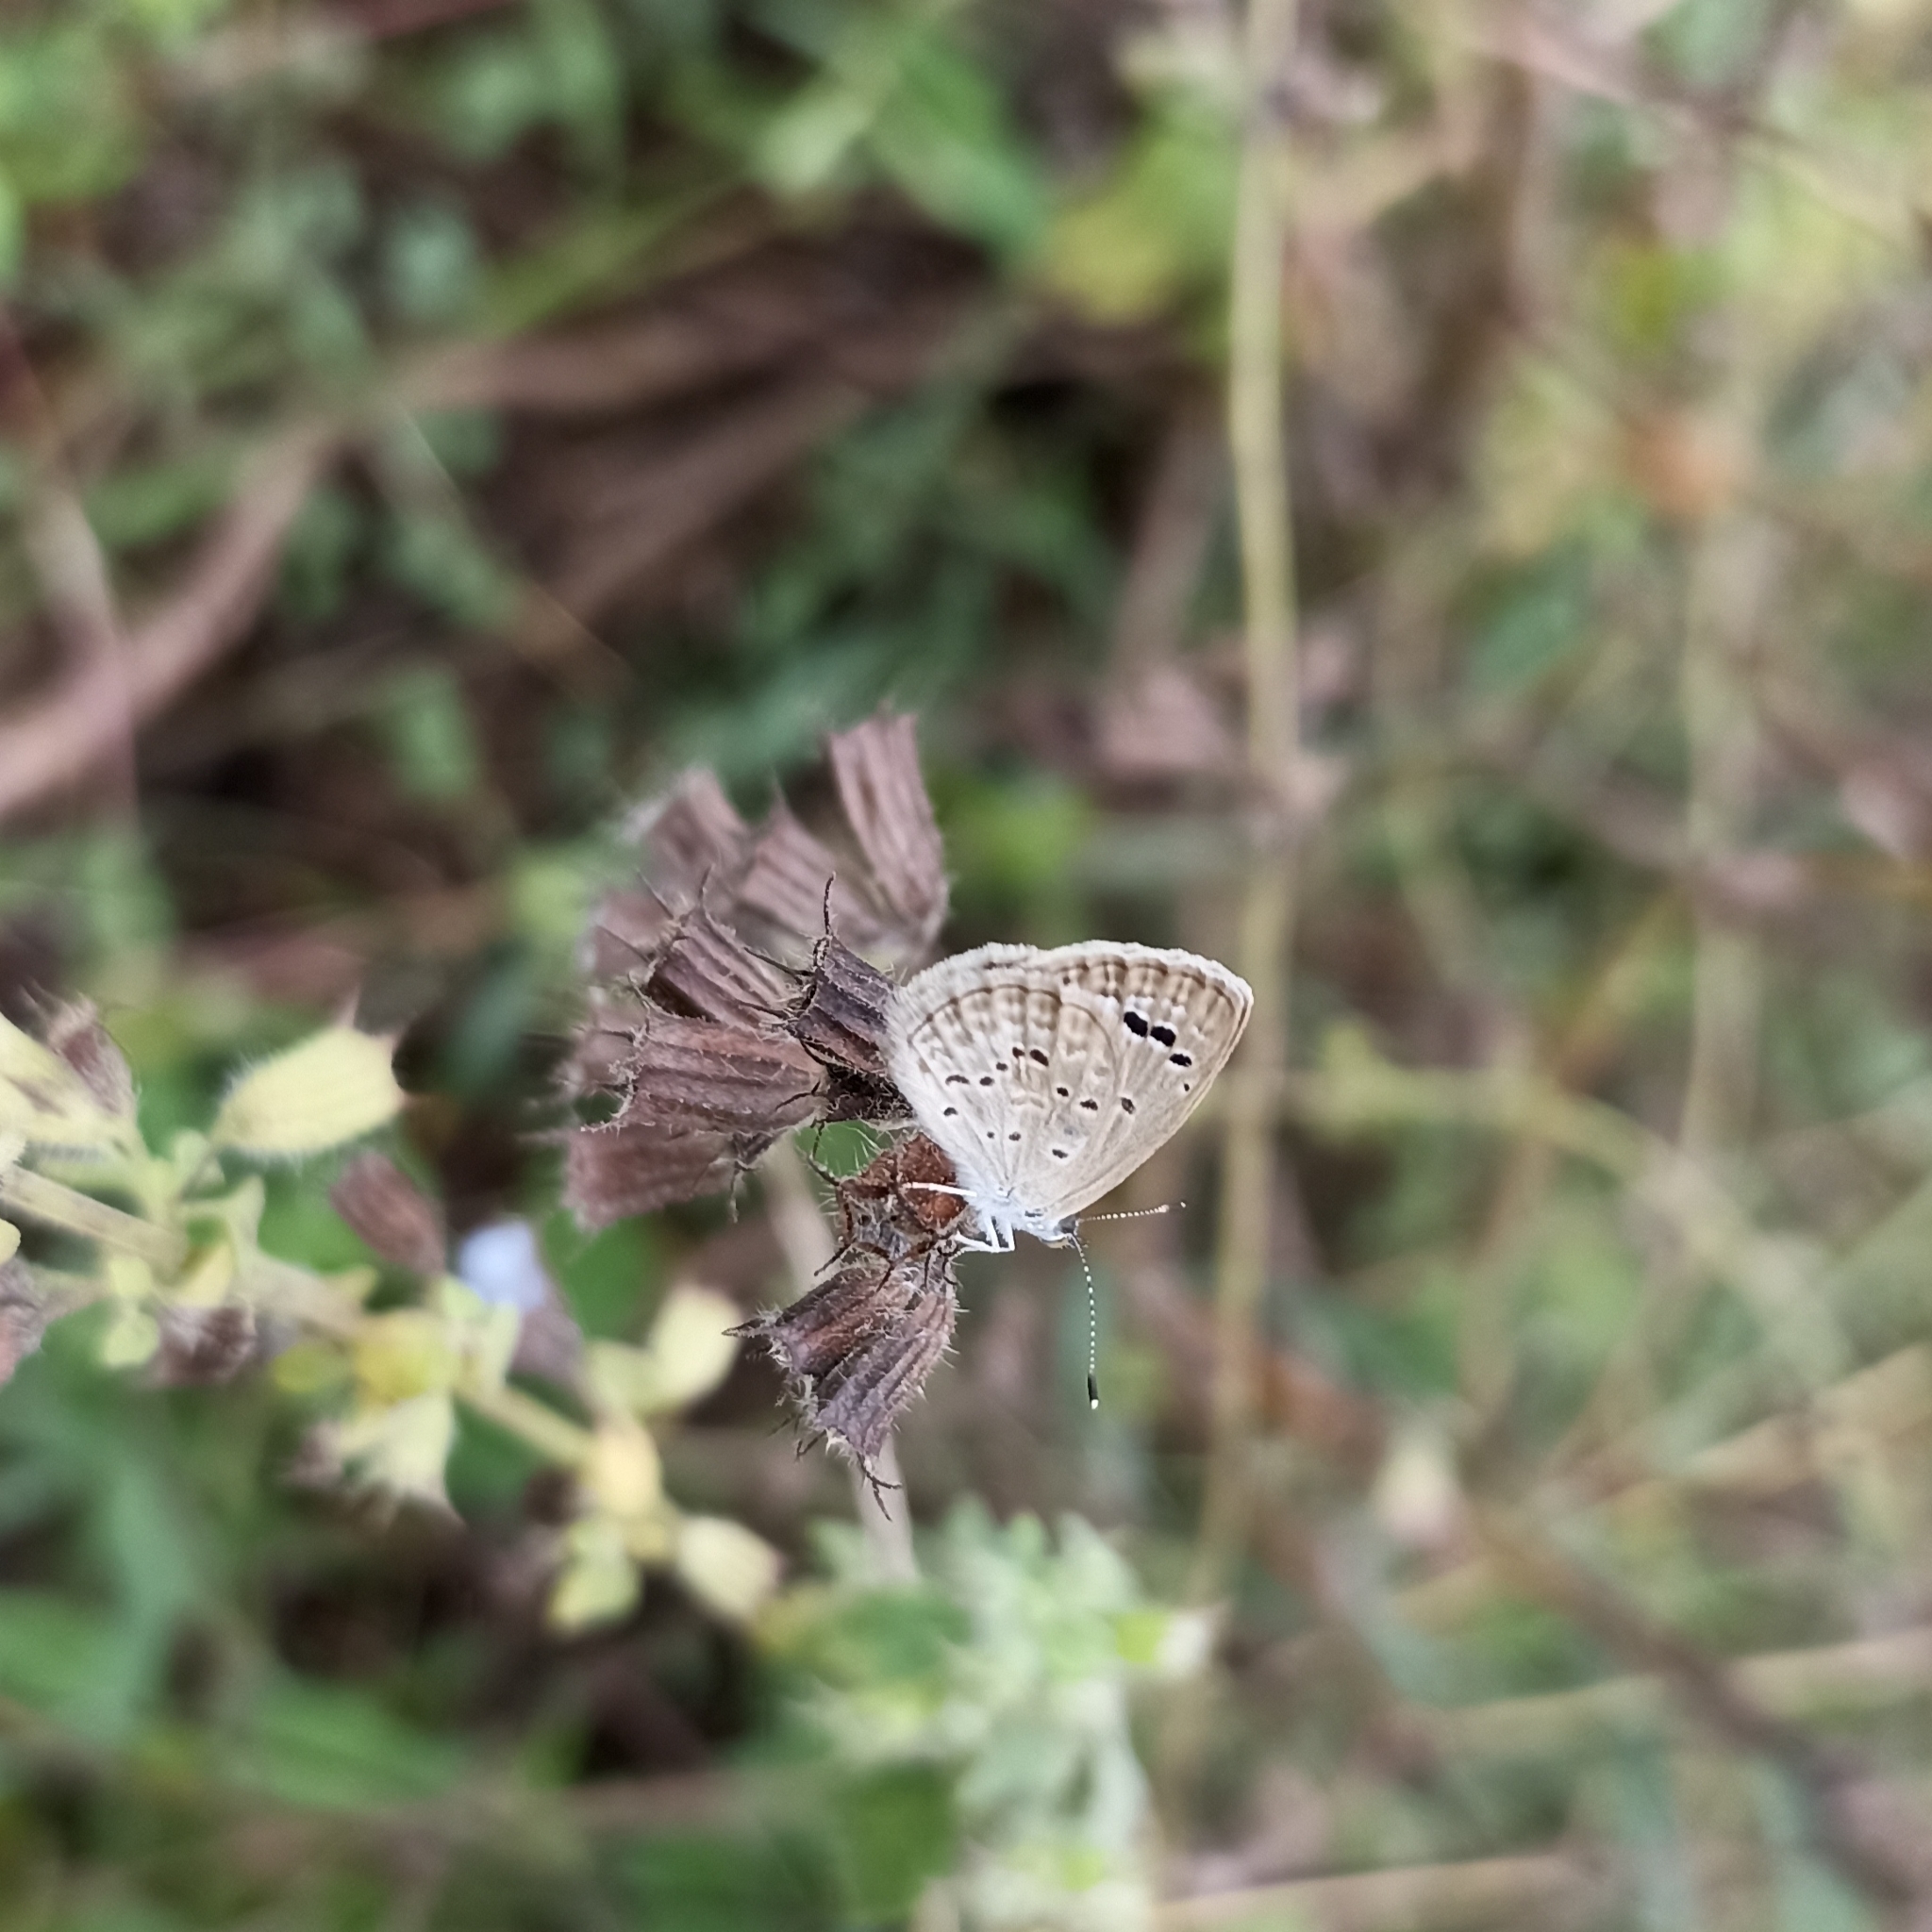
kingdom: Animalia
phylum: Arthropoda
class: Insecta
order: Lepidoptera
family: Lycaenidae
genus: Zizina
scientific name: Zizina otis
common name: Lesser grass blue
